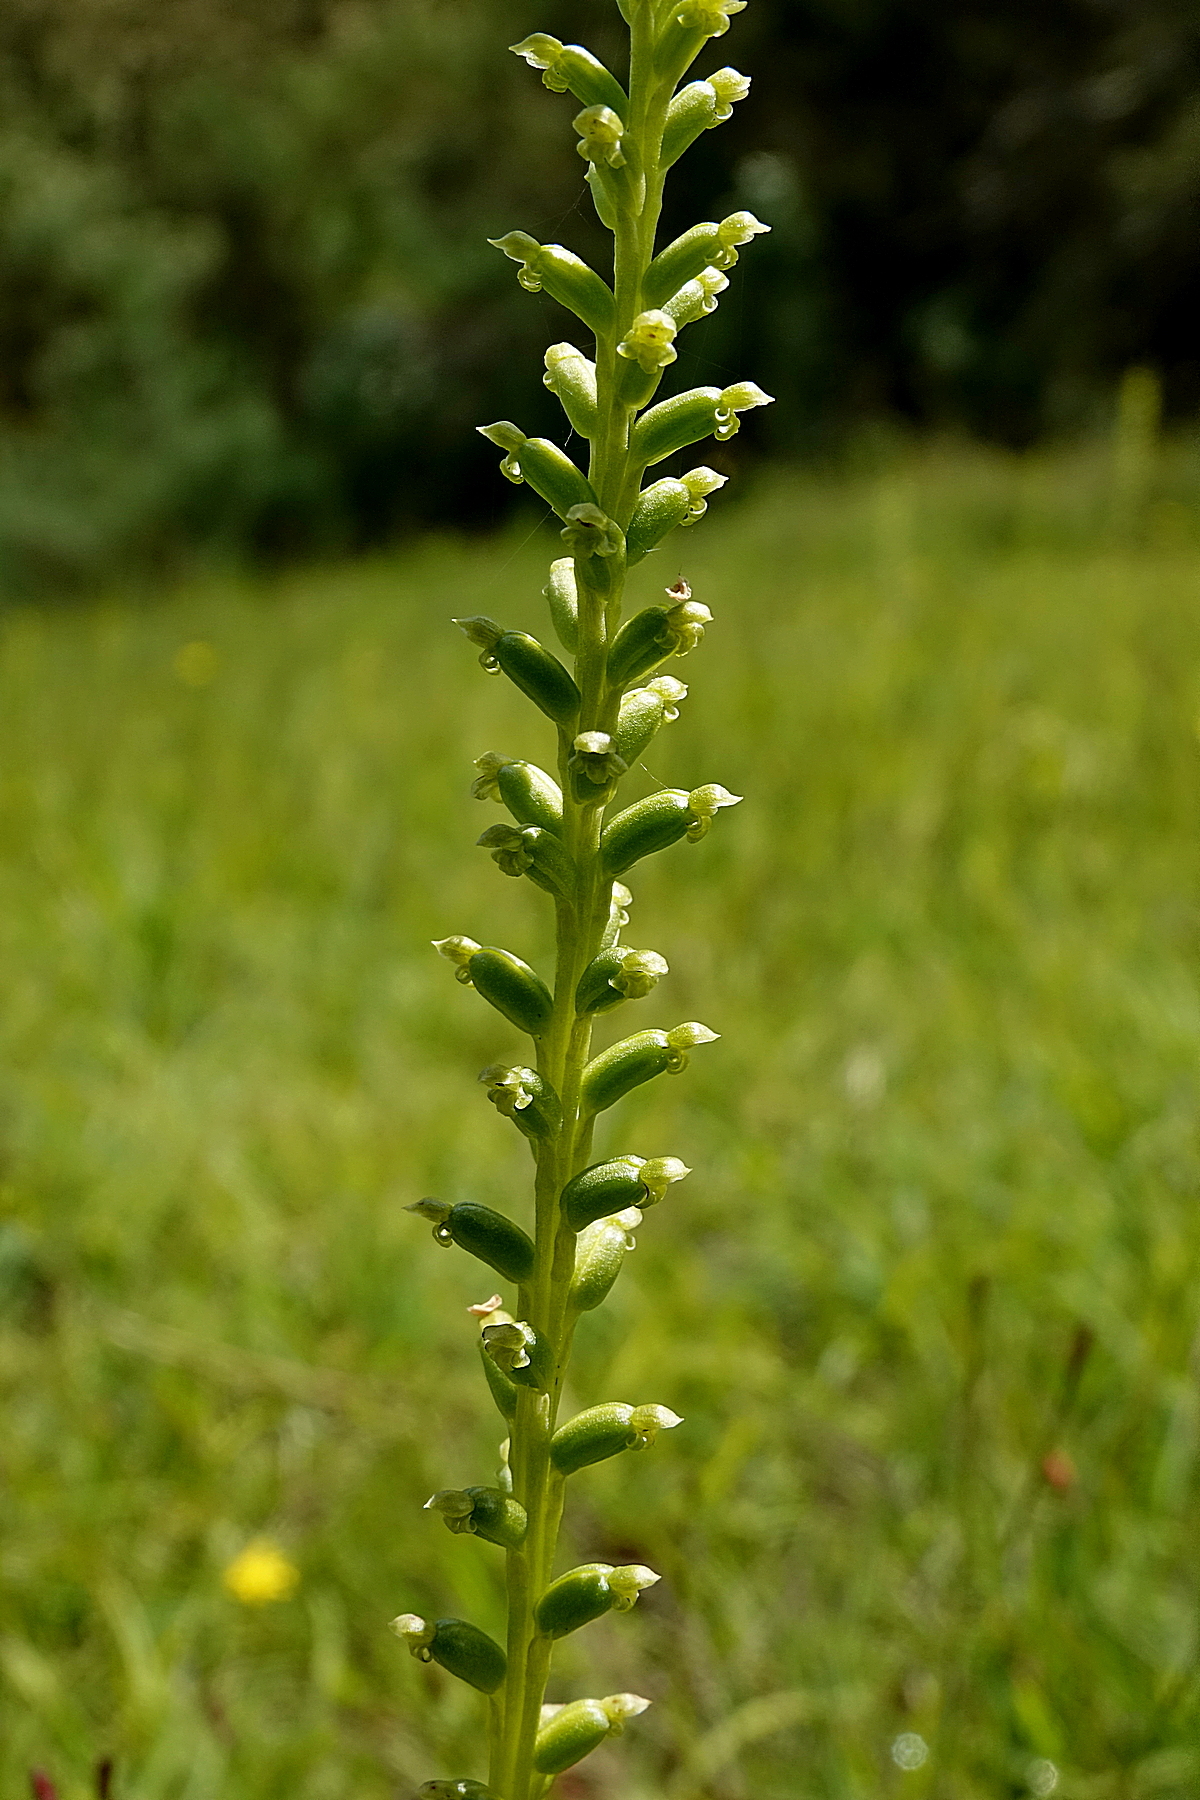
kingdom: Plantae
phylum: Tracheophyta
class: Liliopsida
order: Asparagales
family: Orchidaceae
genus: Microtis
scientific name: Microtis unifolia
